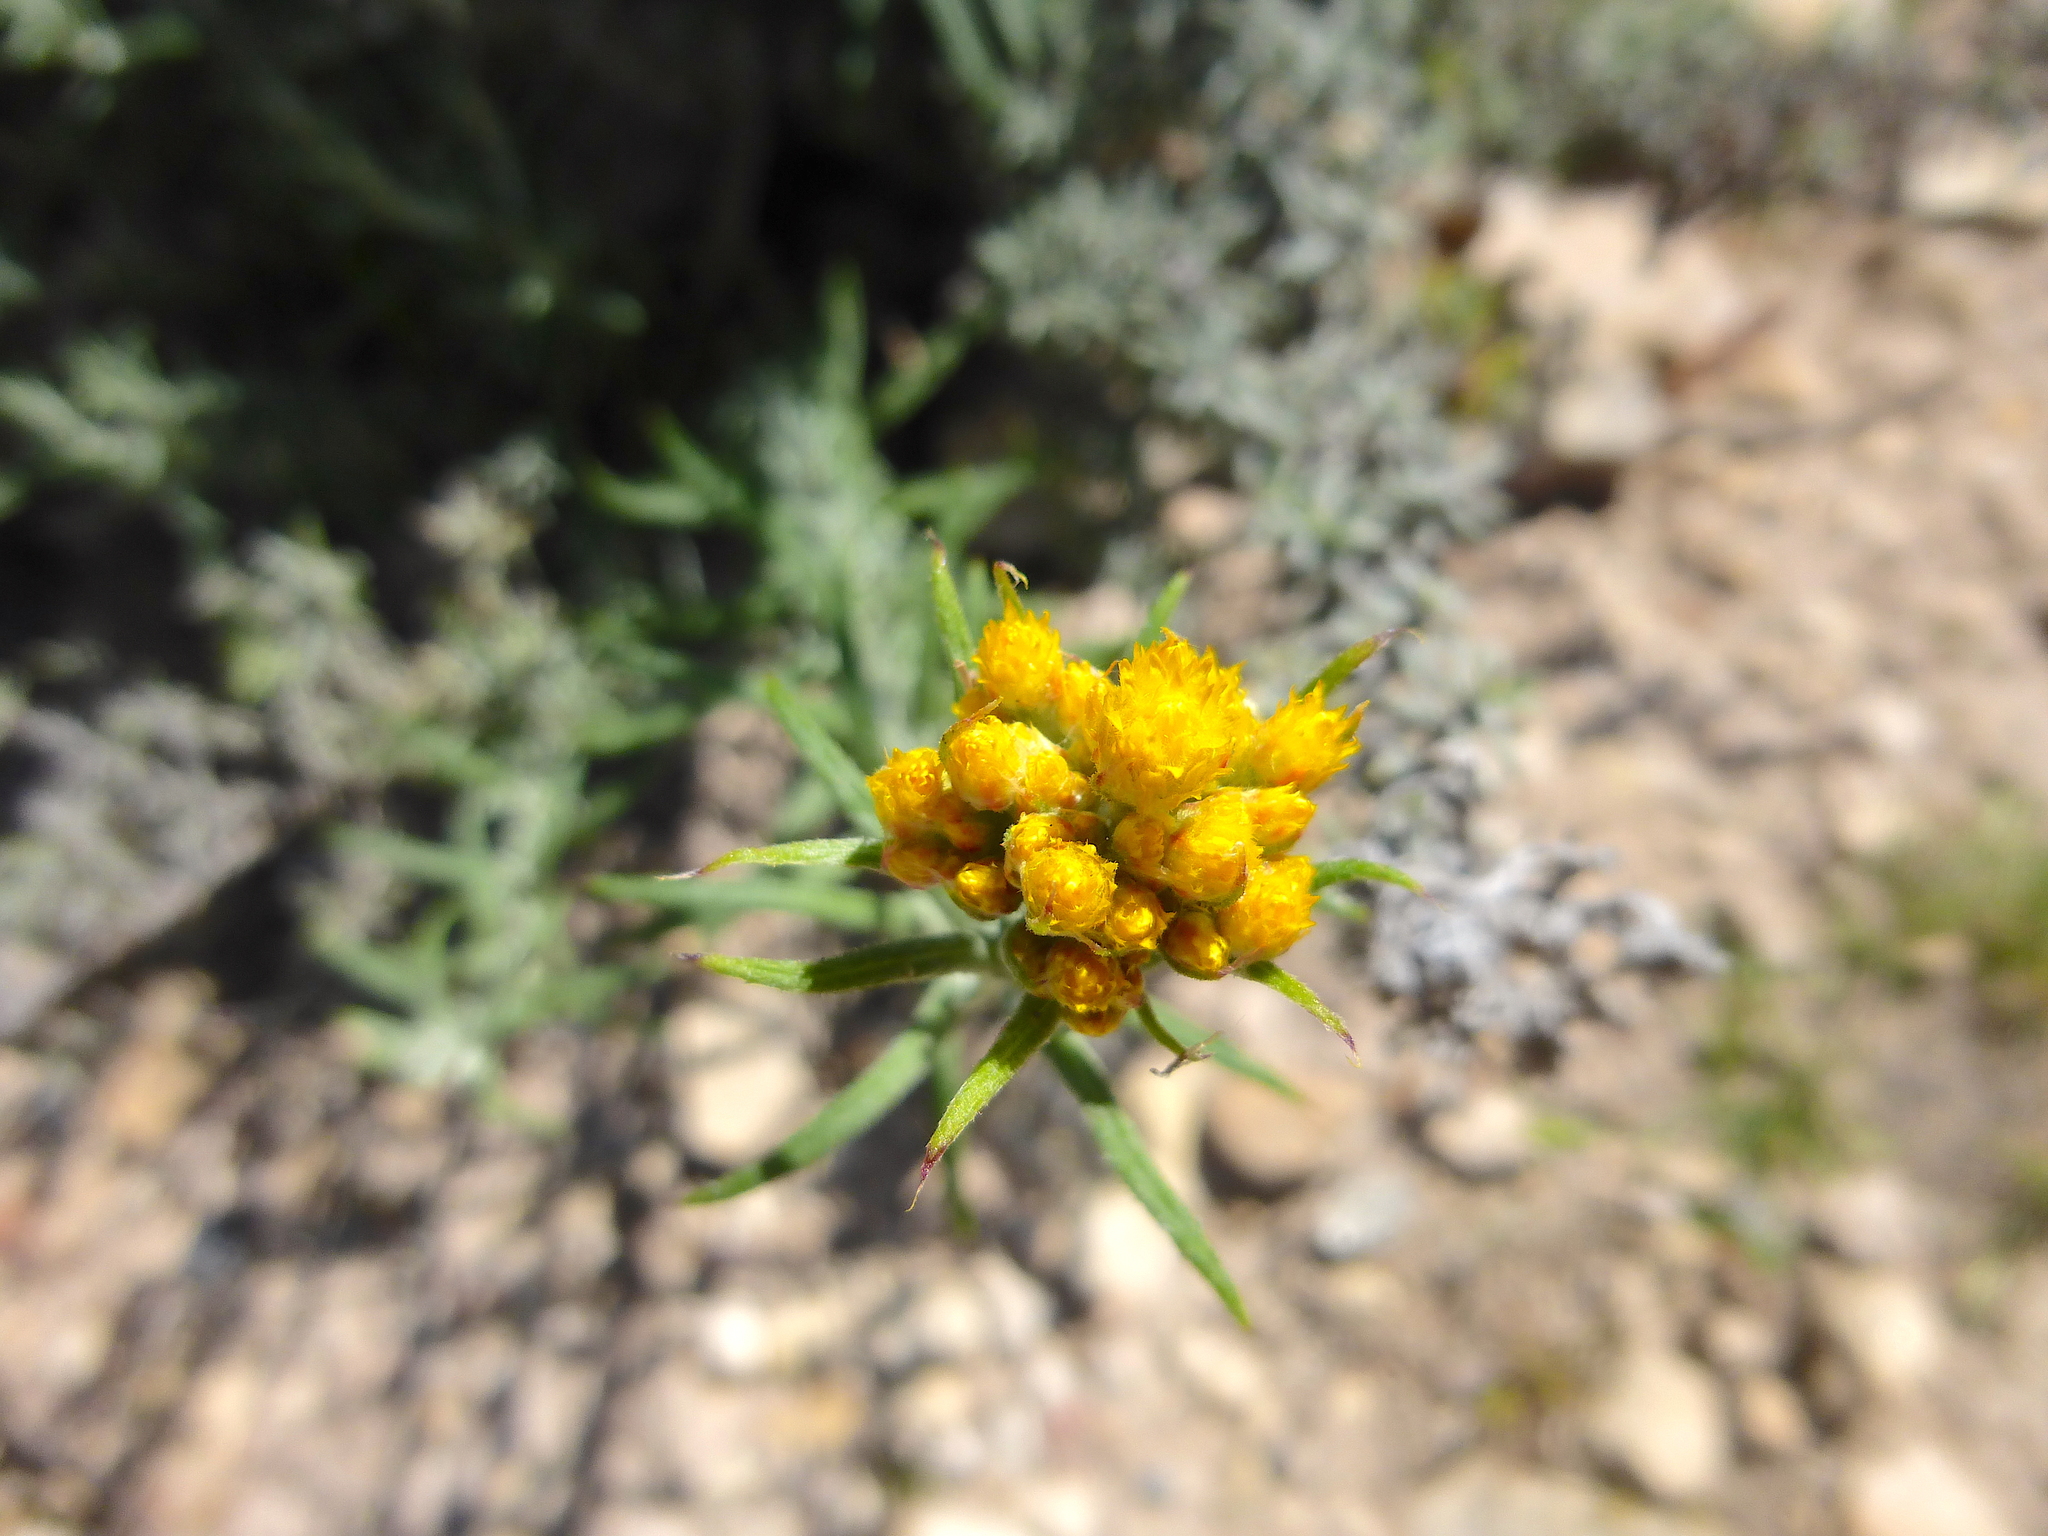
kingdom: Plantae
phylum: Tracheophyta
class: Magnoliopsida
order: Asterales
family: Asteraceae
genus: Chrysocephalum
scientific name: Chrysocephalum semipapposum
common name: Clustered everlasting
